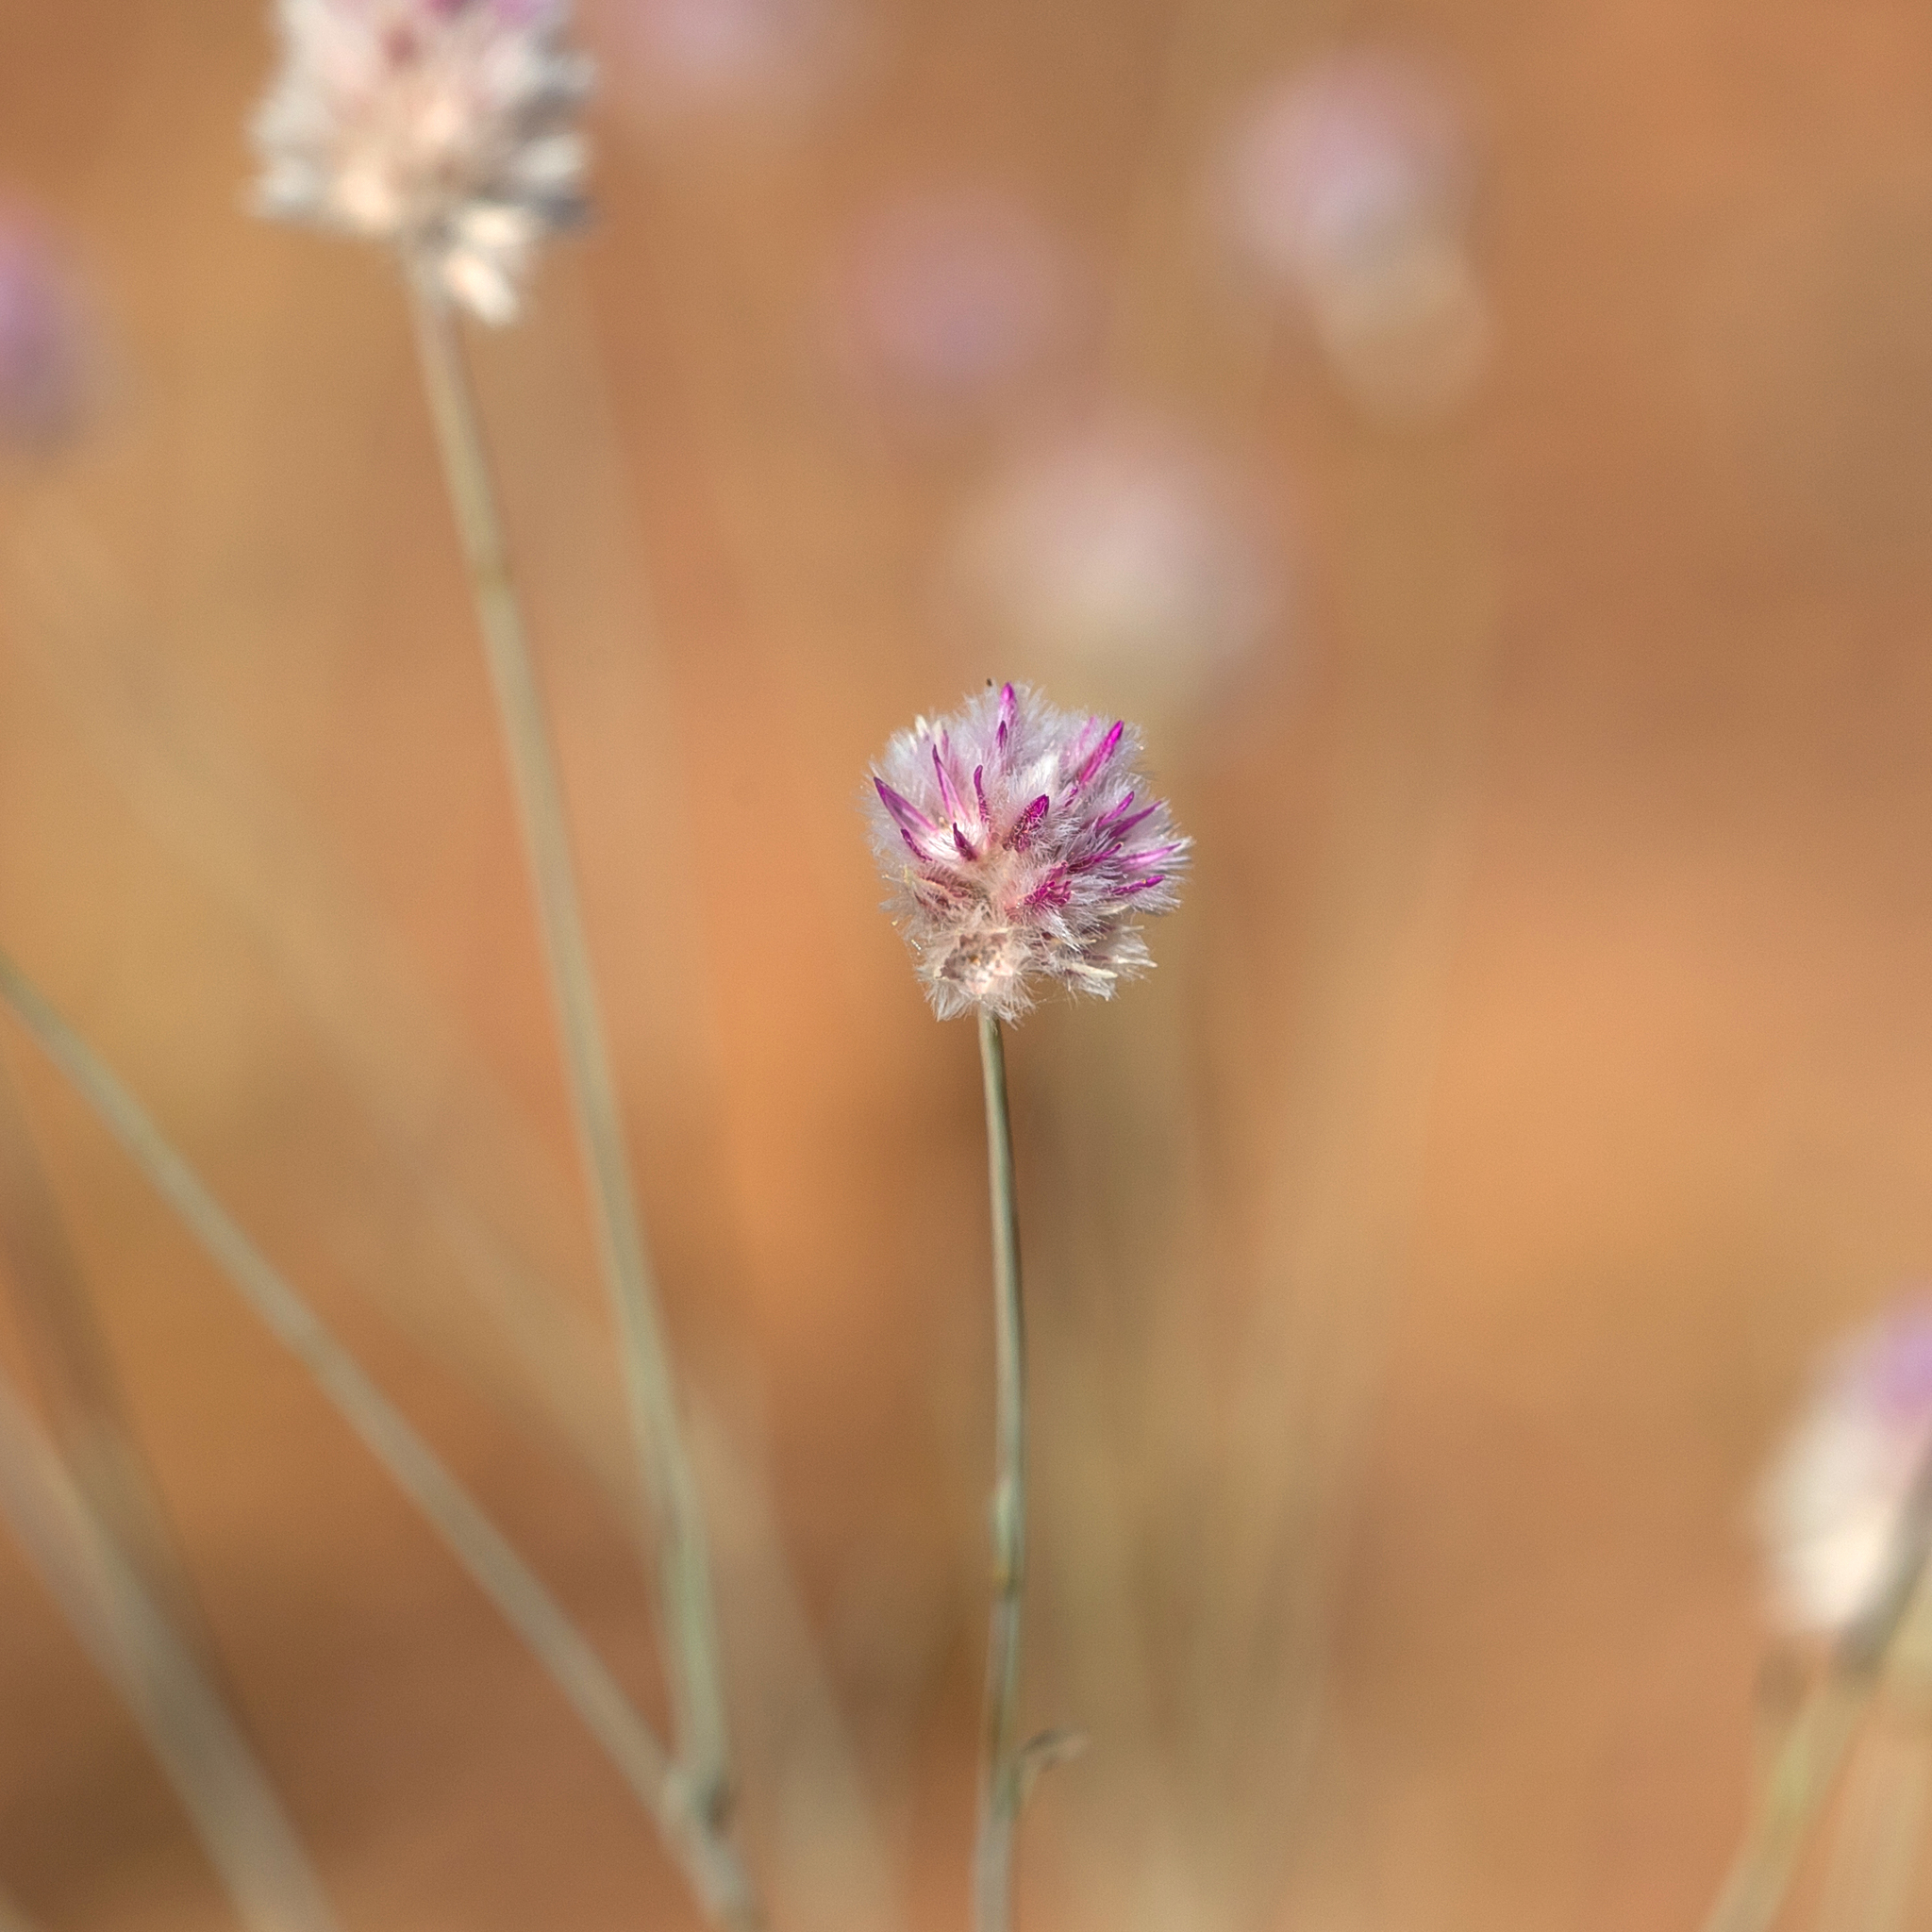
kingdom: Plantae
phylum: Tracheophyta
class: Magnoliopsida
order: Caryophyllales
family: Amaranthaceae
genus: Ptilotus
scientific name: Ptilotus schwartzii
